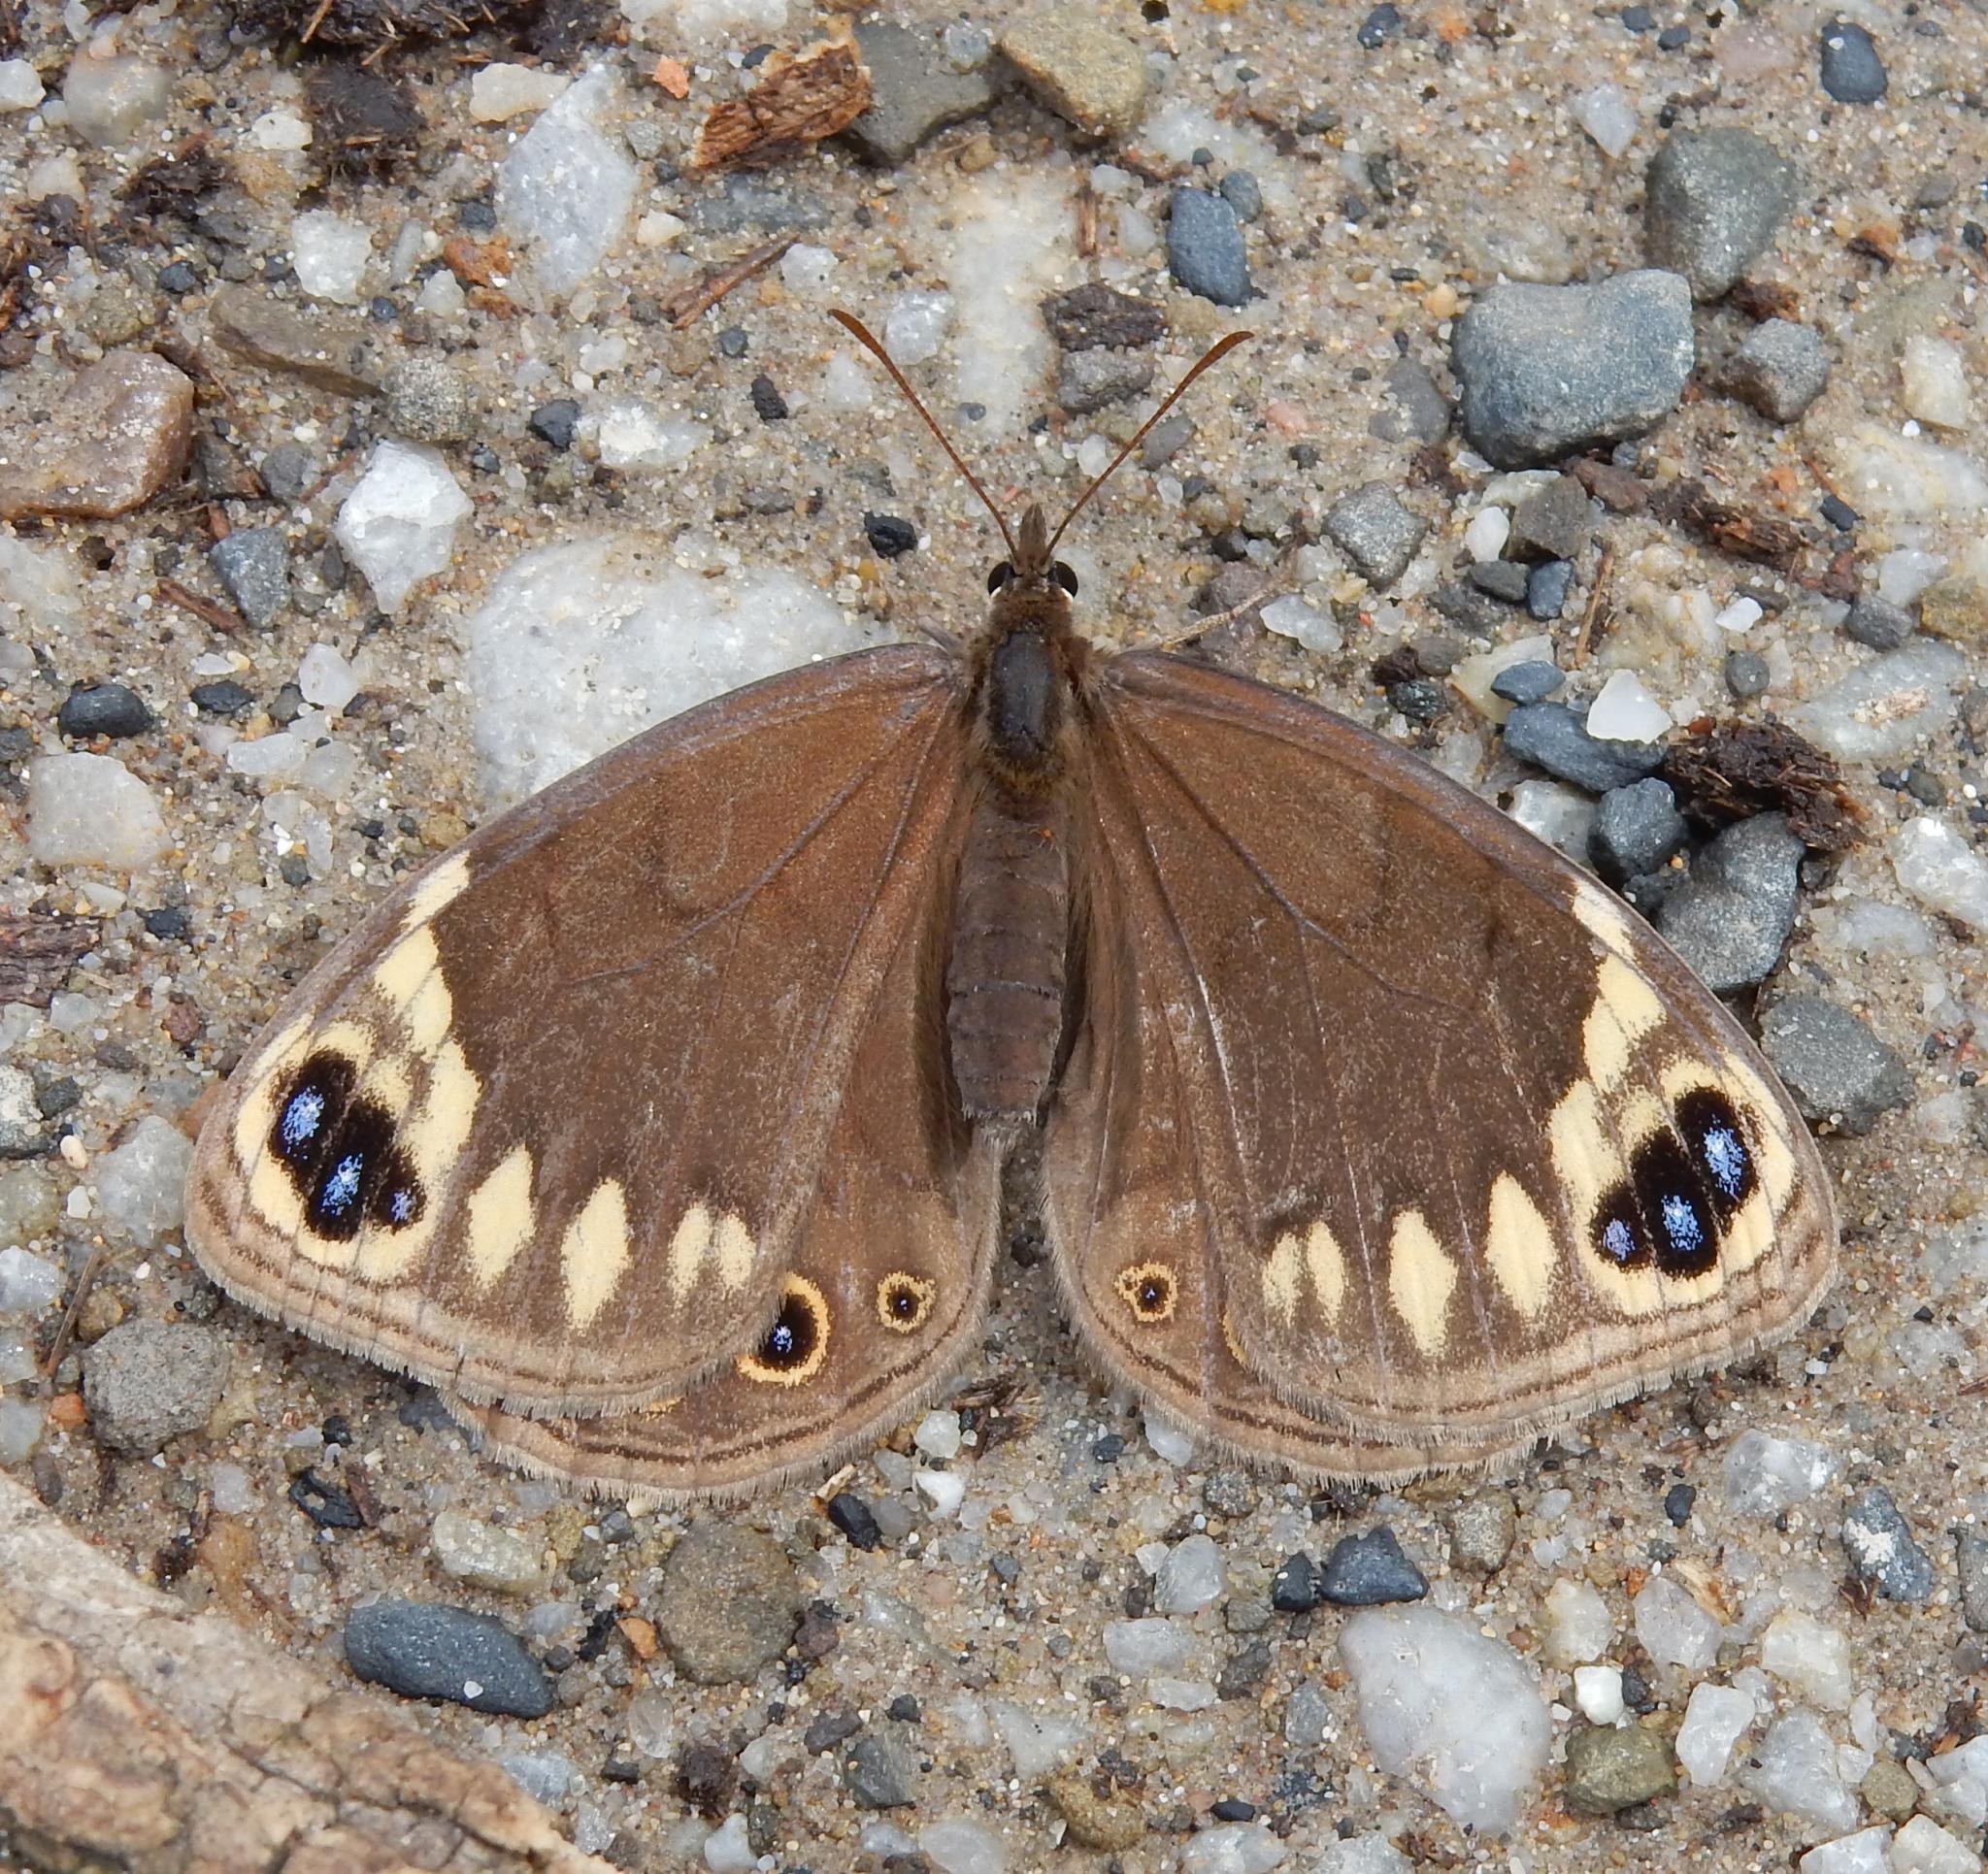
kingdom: Animalia
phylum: Arthropoda
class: Insecta
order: Lepidoptera
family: Nymphalidae
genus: Dira
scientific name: Dira oxylus
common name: Pondoland widow
